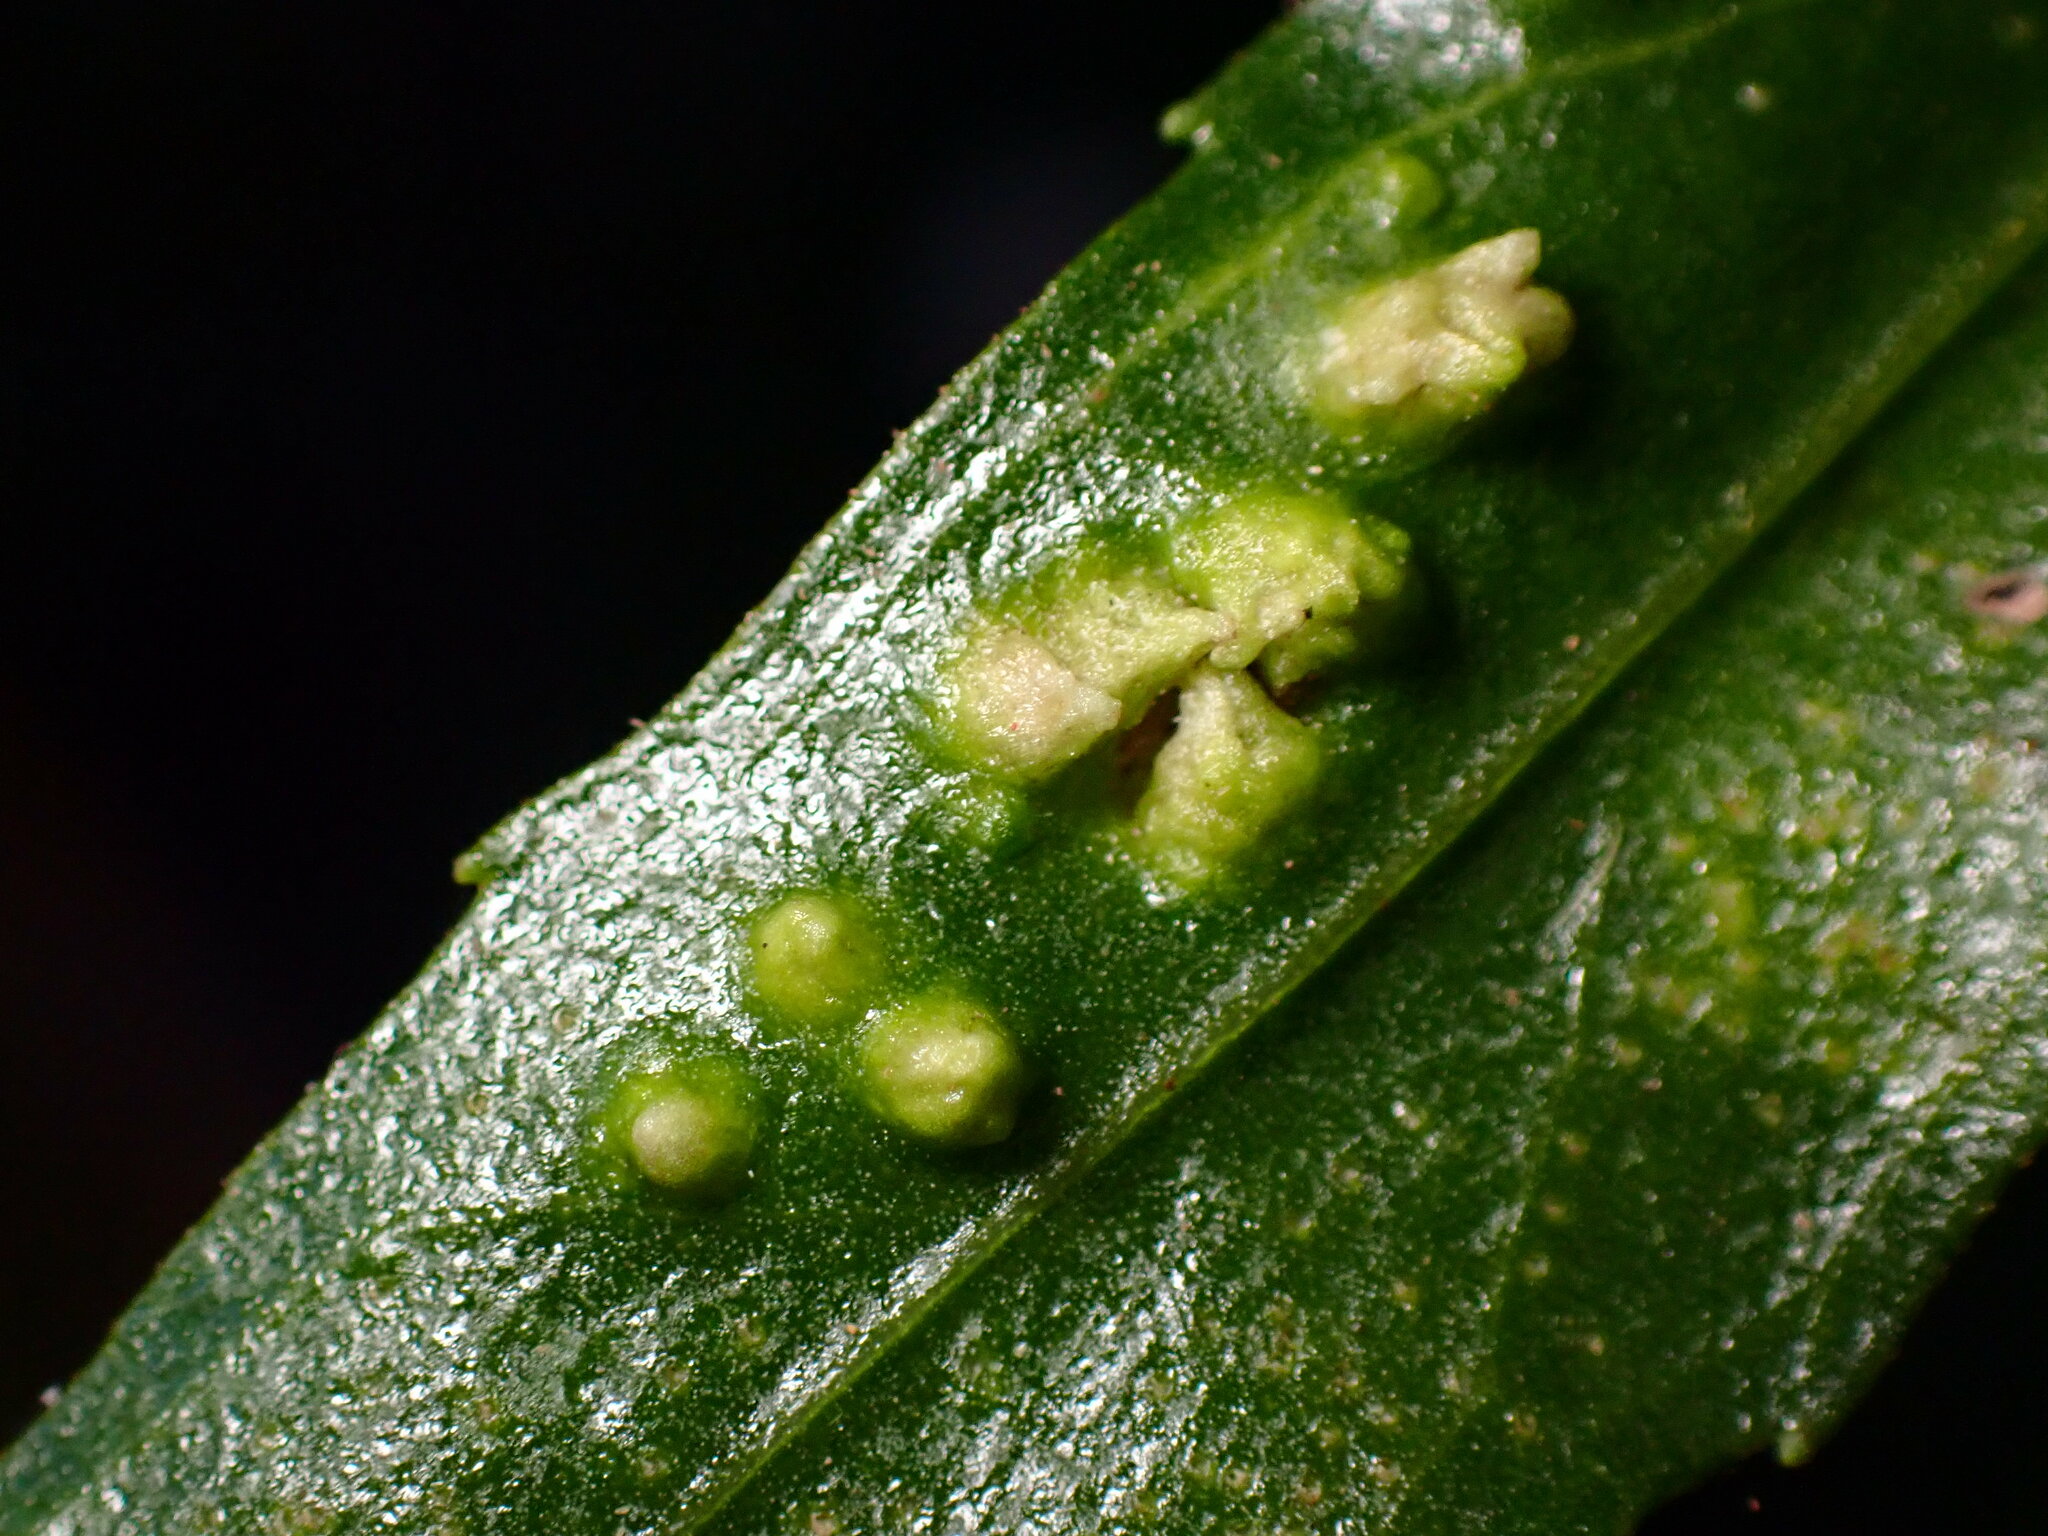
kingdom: Animalia
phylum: Arthropoda
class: Arachnida
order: Trombidiformes
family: Eriophyidae
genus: Aceria
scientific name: Aceria
